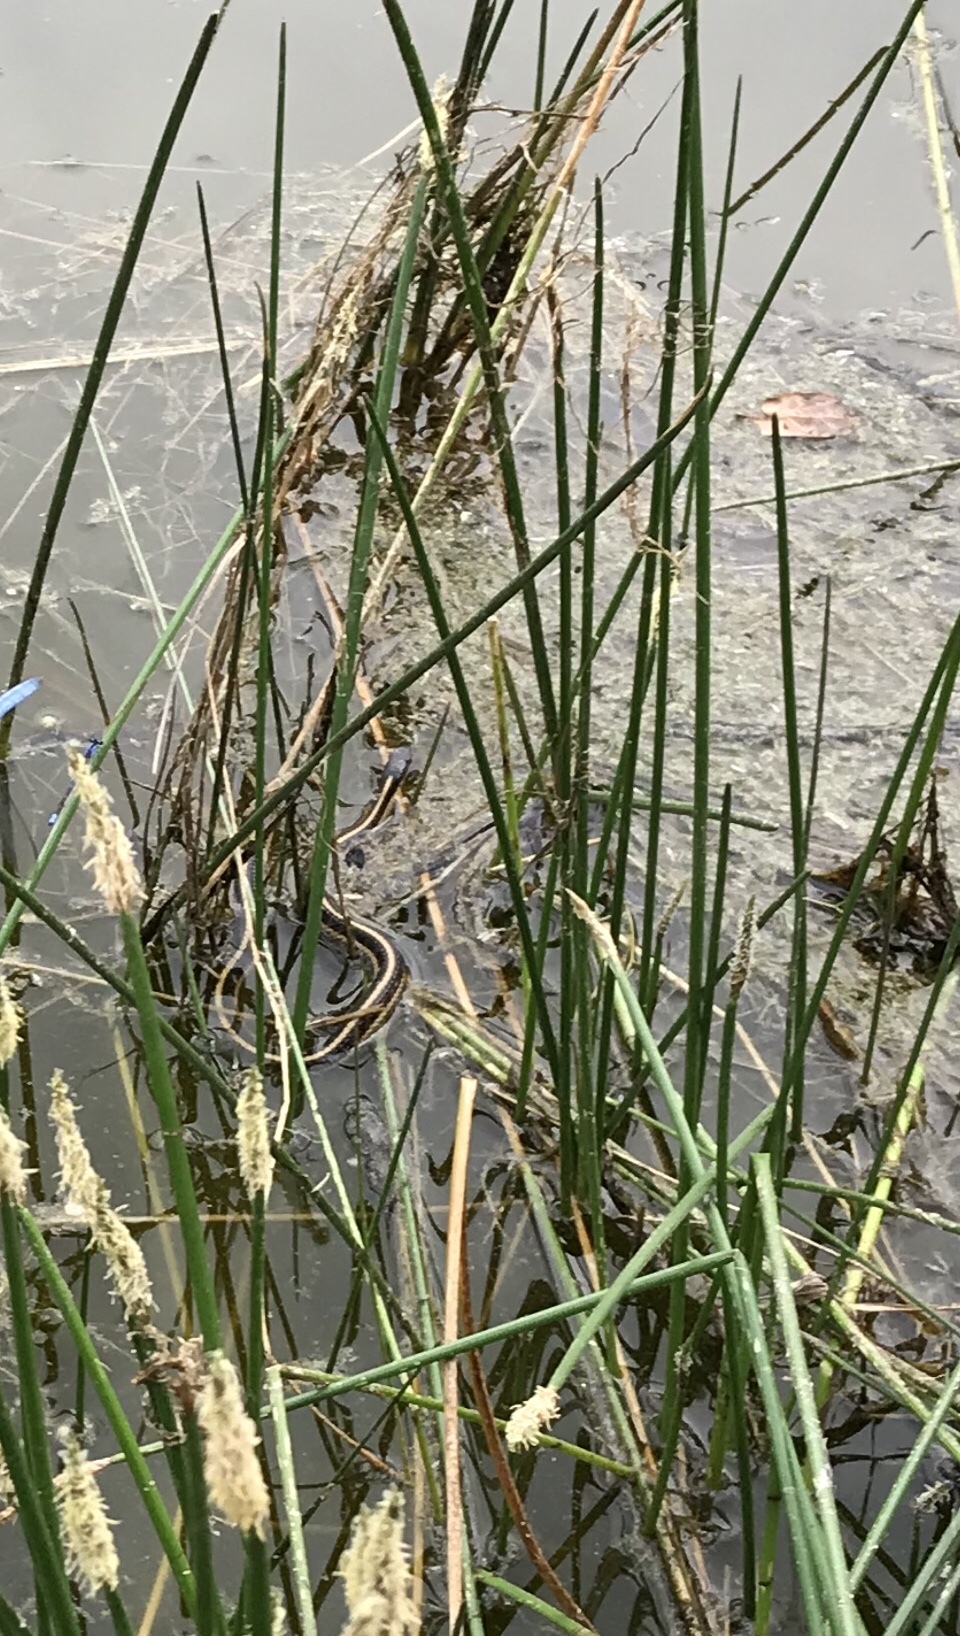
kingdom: Animalia
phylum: Chordata
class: Squamata
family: Colubridae
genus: Thamnophis
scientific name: Thamnophis sirtalis
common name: Common garter snake
